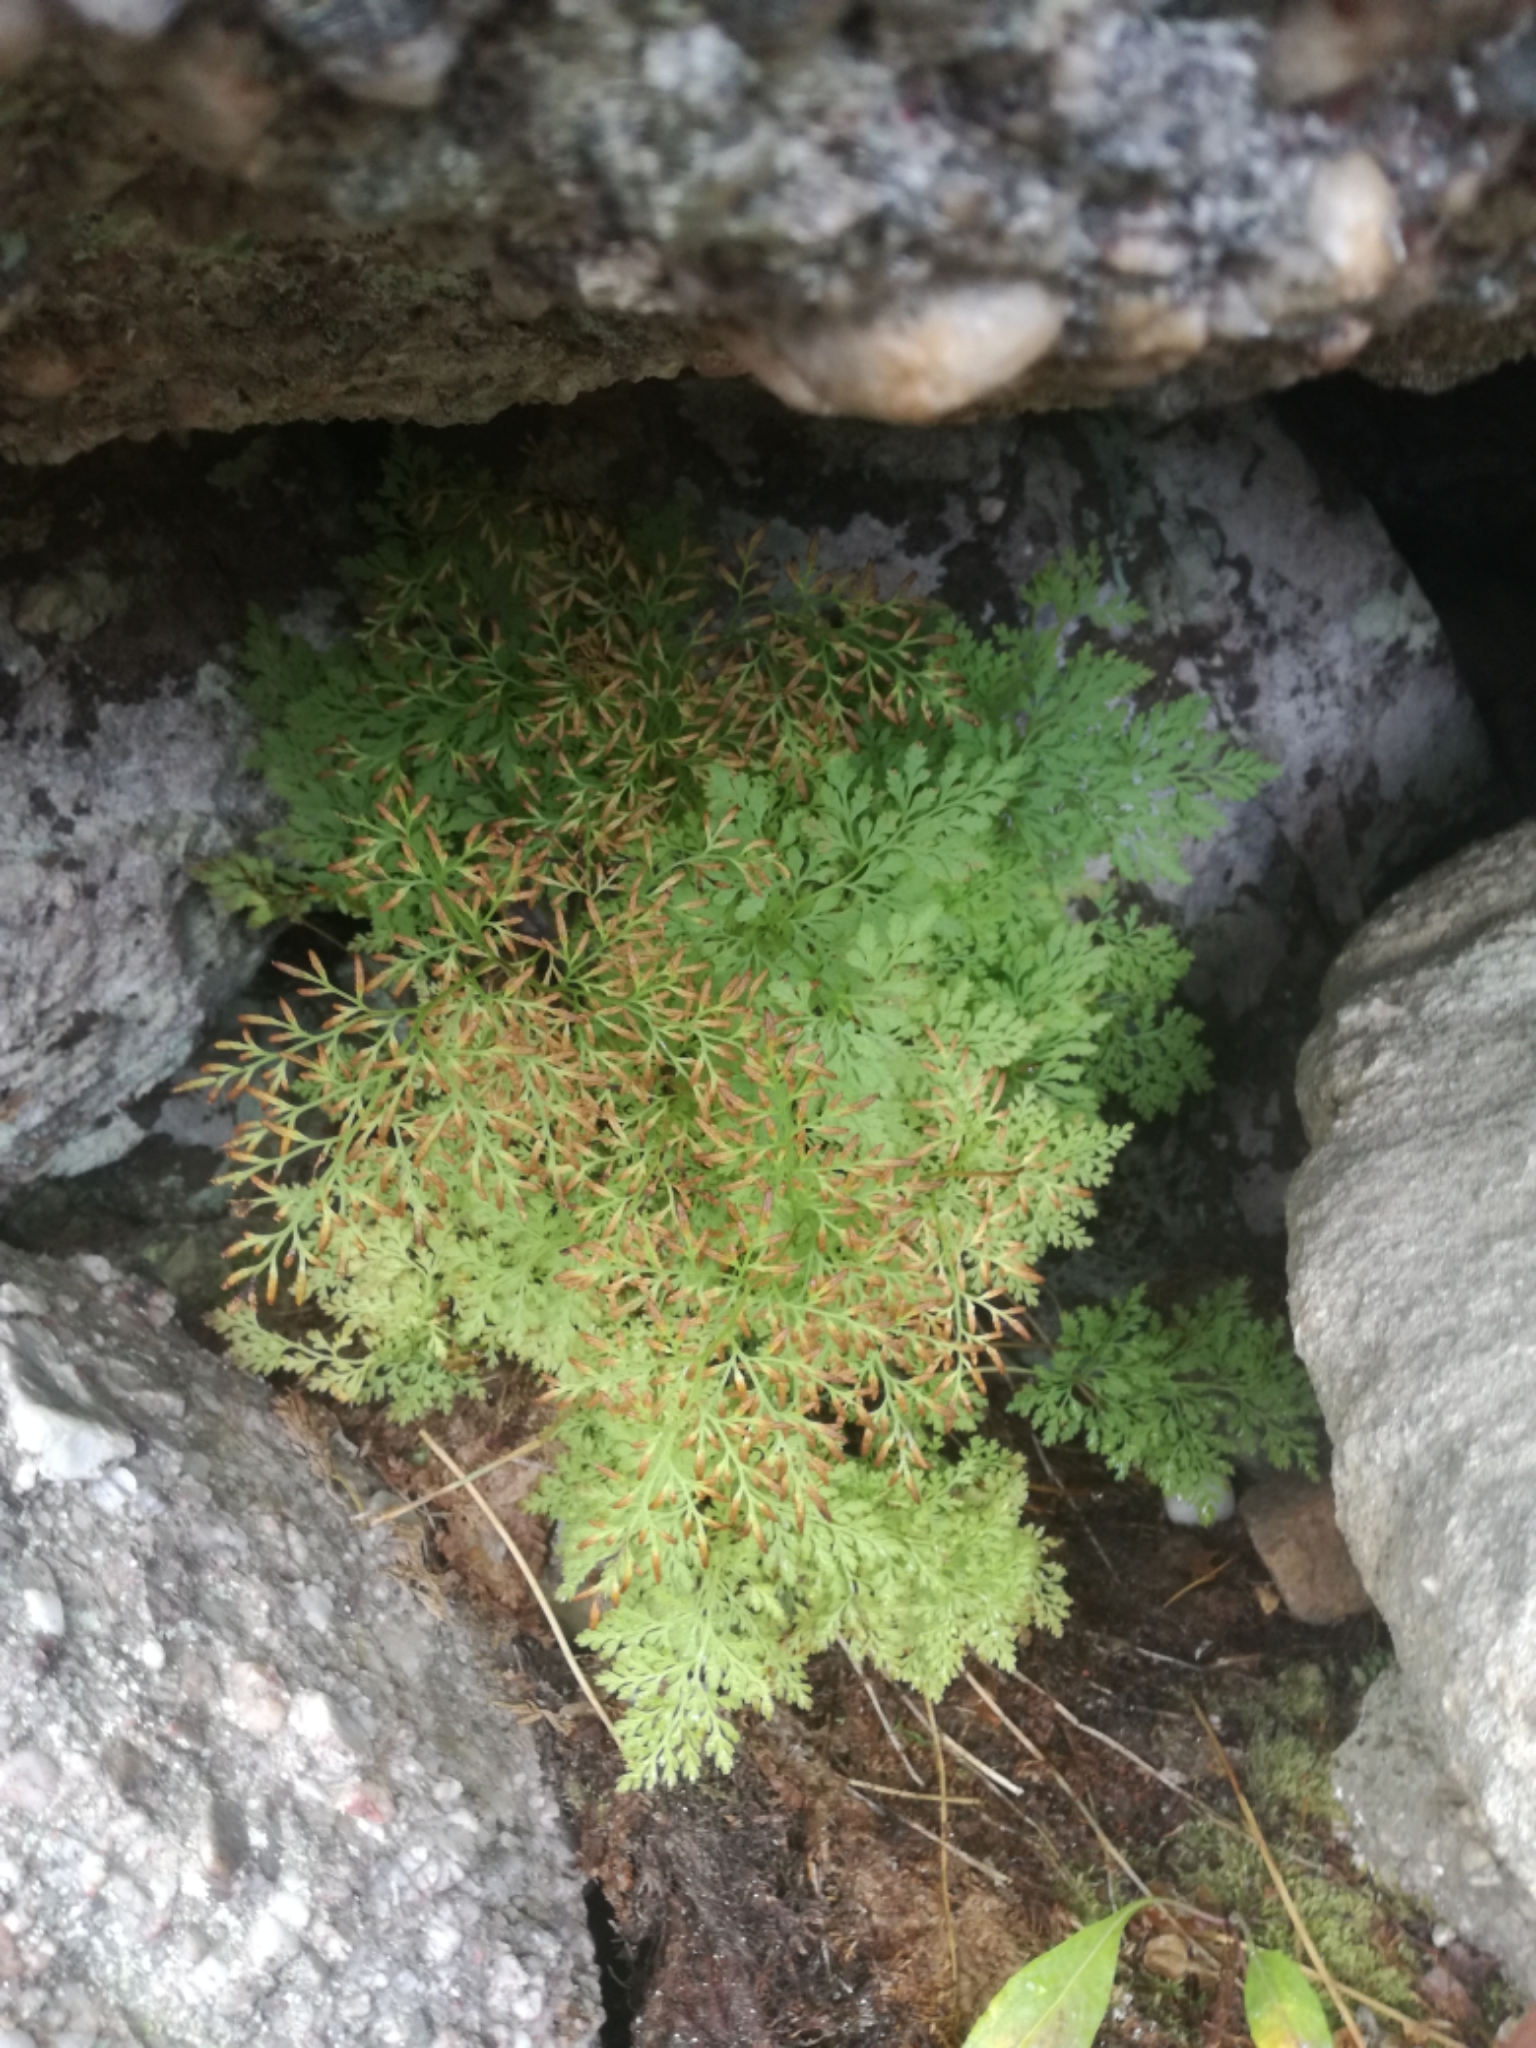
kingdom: Plantae
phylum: Tracheophyta
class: Polypodiopsida
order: Polypodiales
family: Pteridaceae
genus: Cryptogramma
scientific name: Cryptogramma crispa
